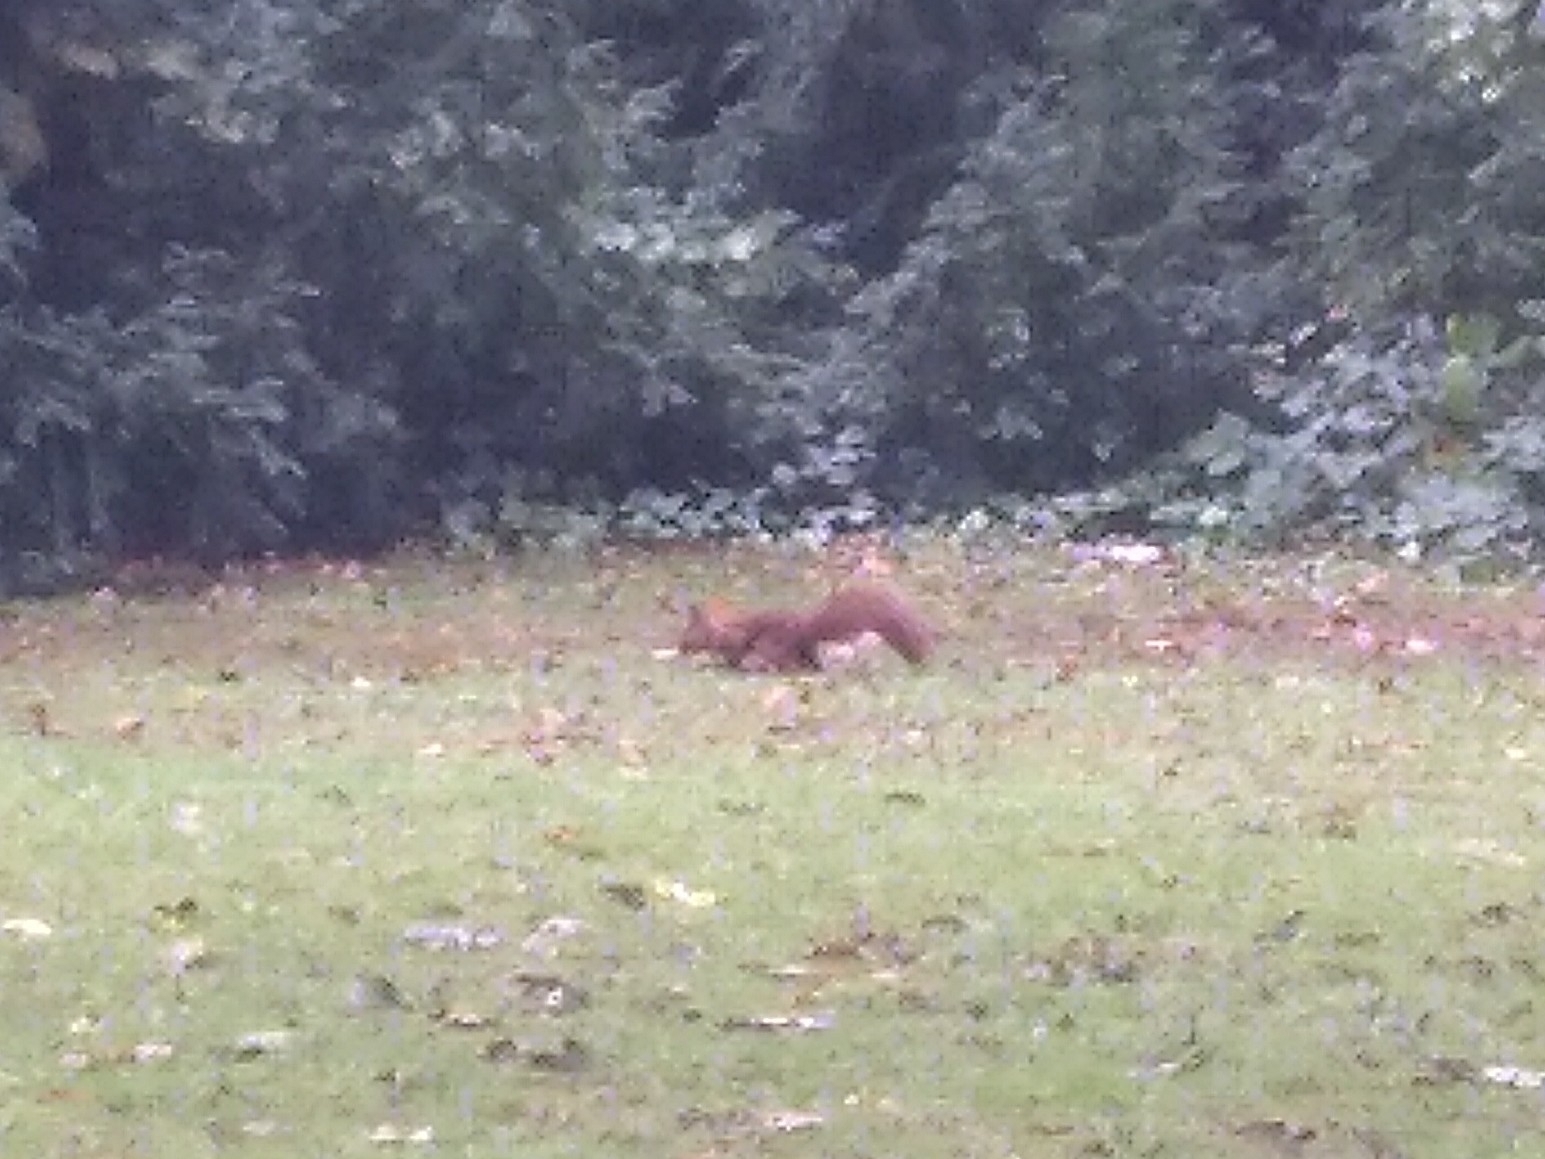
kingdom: Animalia
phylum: Chordata
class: Mammalia
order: Rodentia
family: Sciuridae
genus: Sciurus
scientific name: Sciurus vulgaris
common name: Eurasian red squirrel
